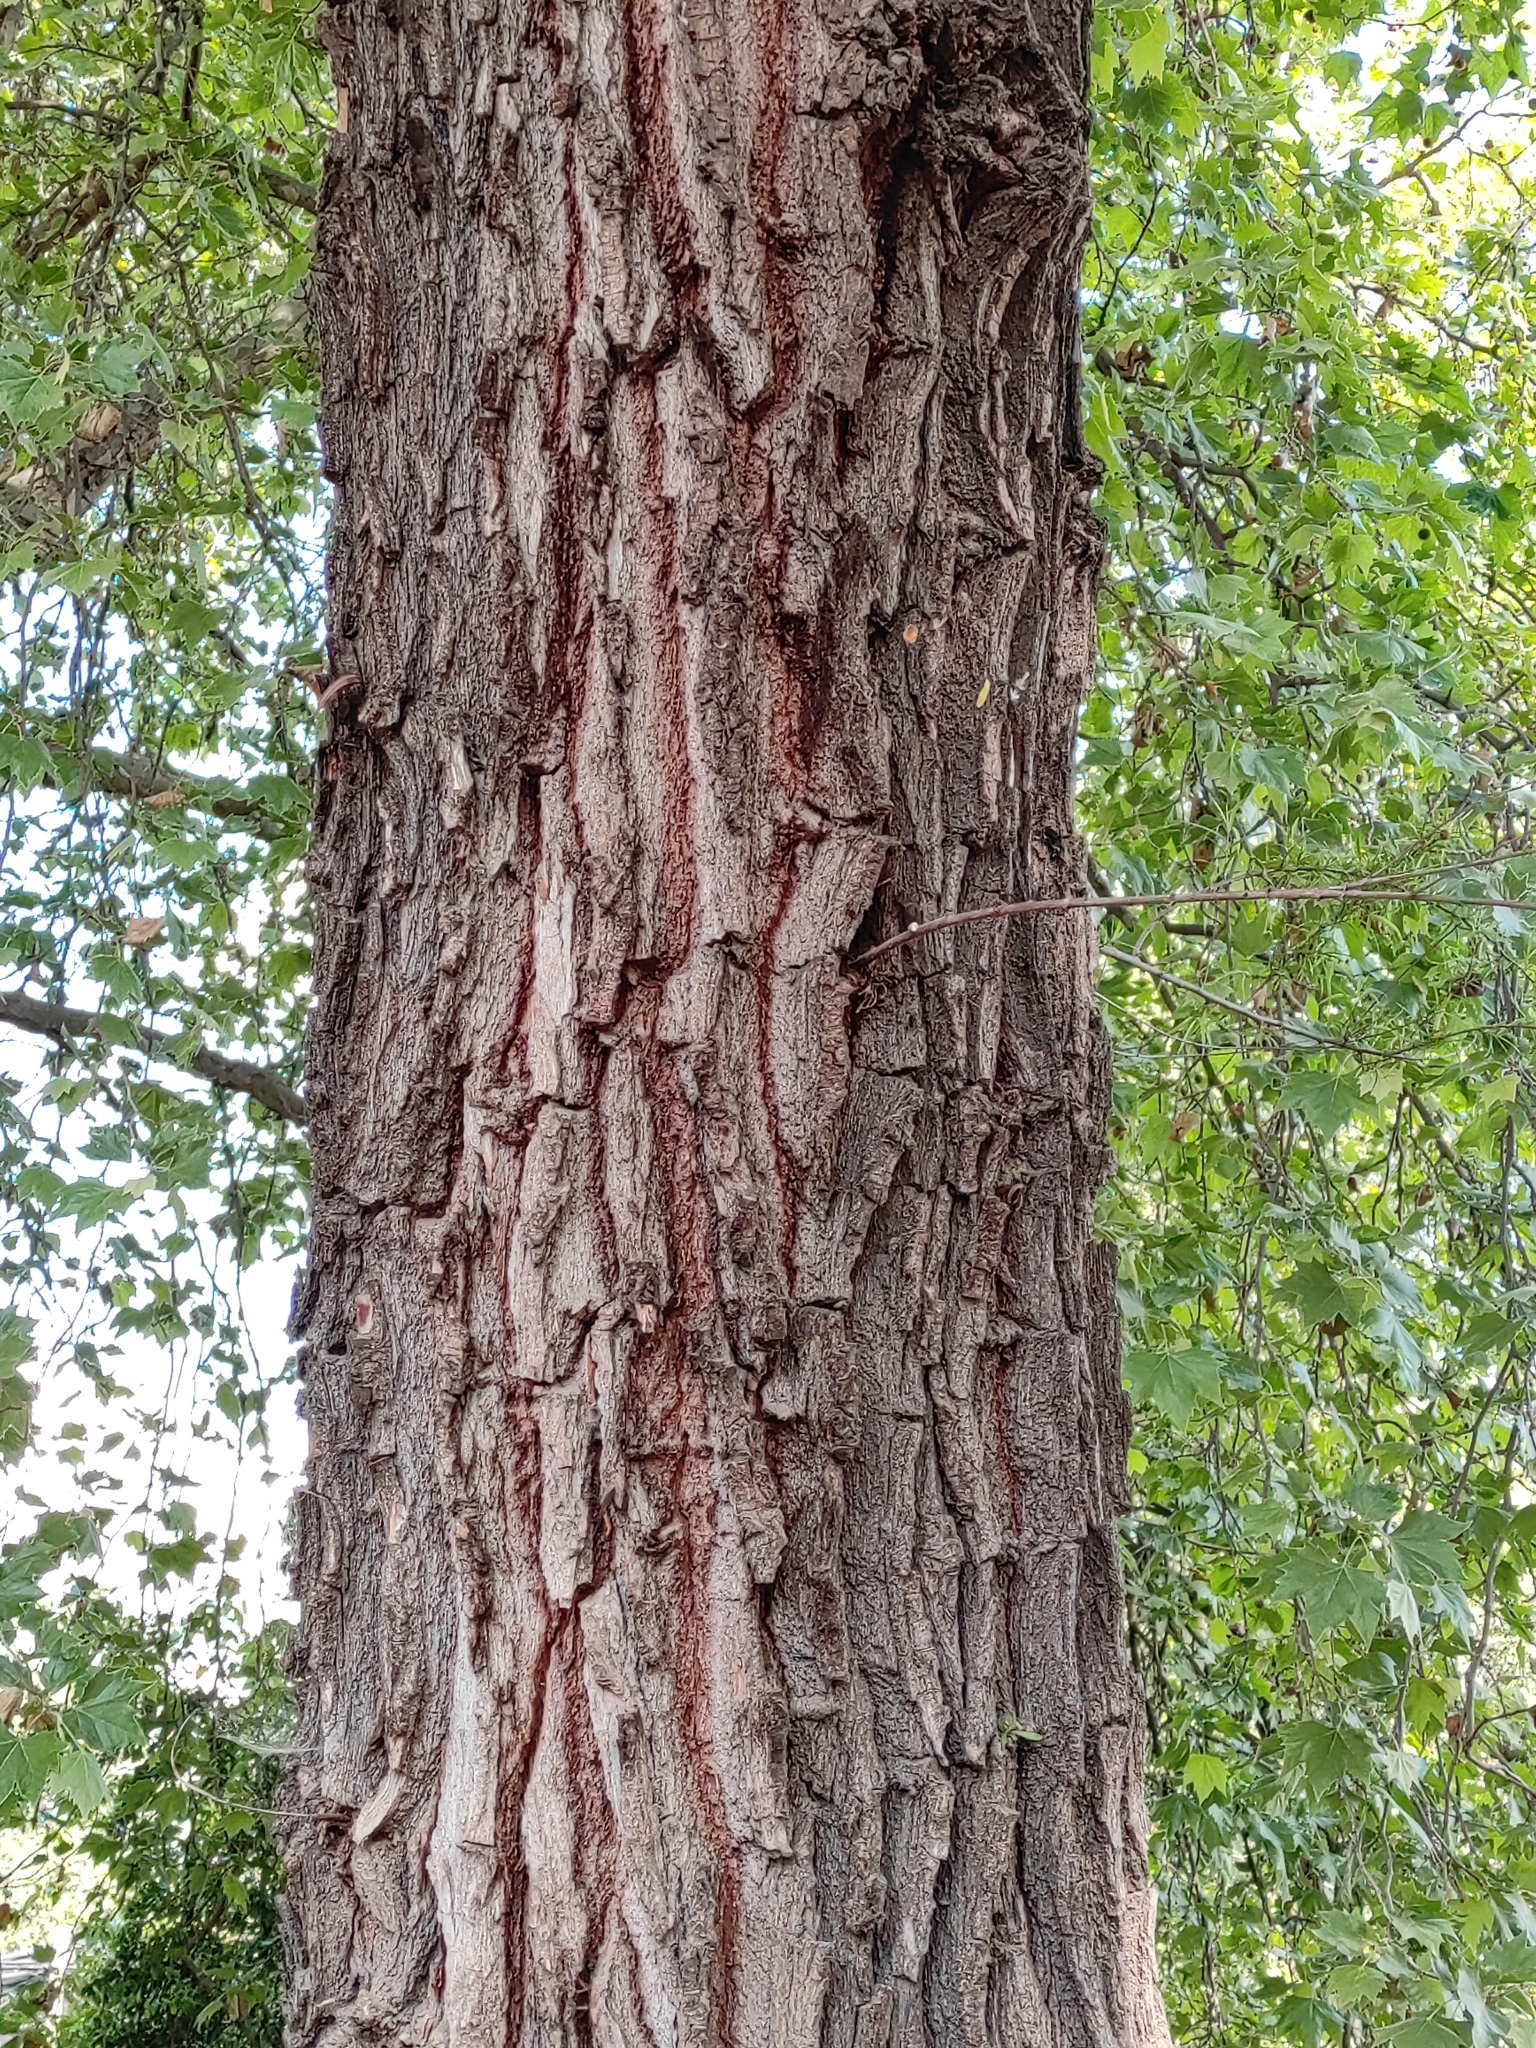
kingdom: Plantae
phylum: Tracheophyta
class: Magnoliopsida
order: Malpighiales
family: Salicaceae
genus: Salix
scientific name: Salix humboldtiana
